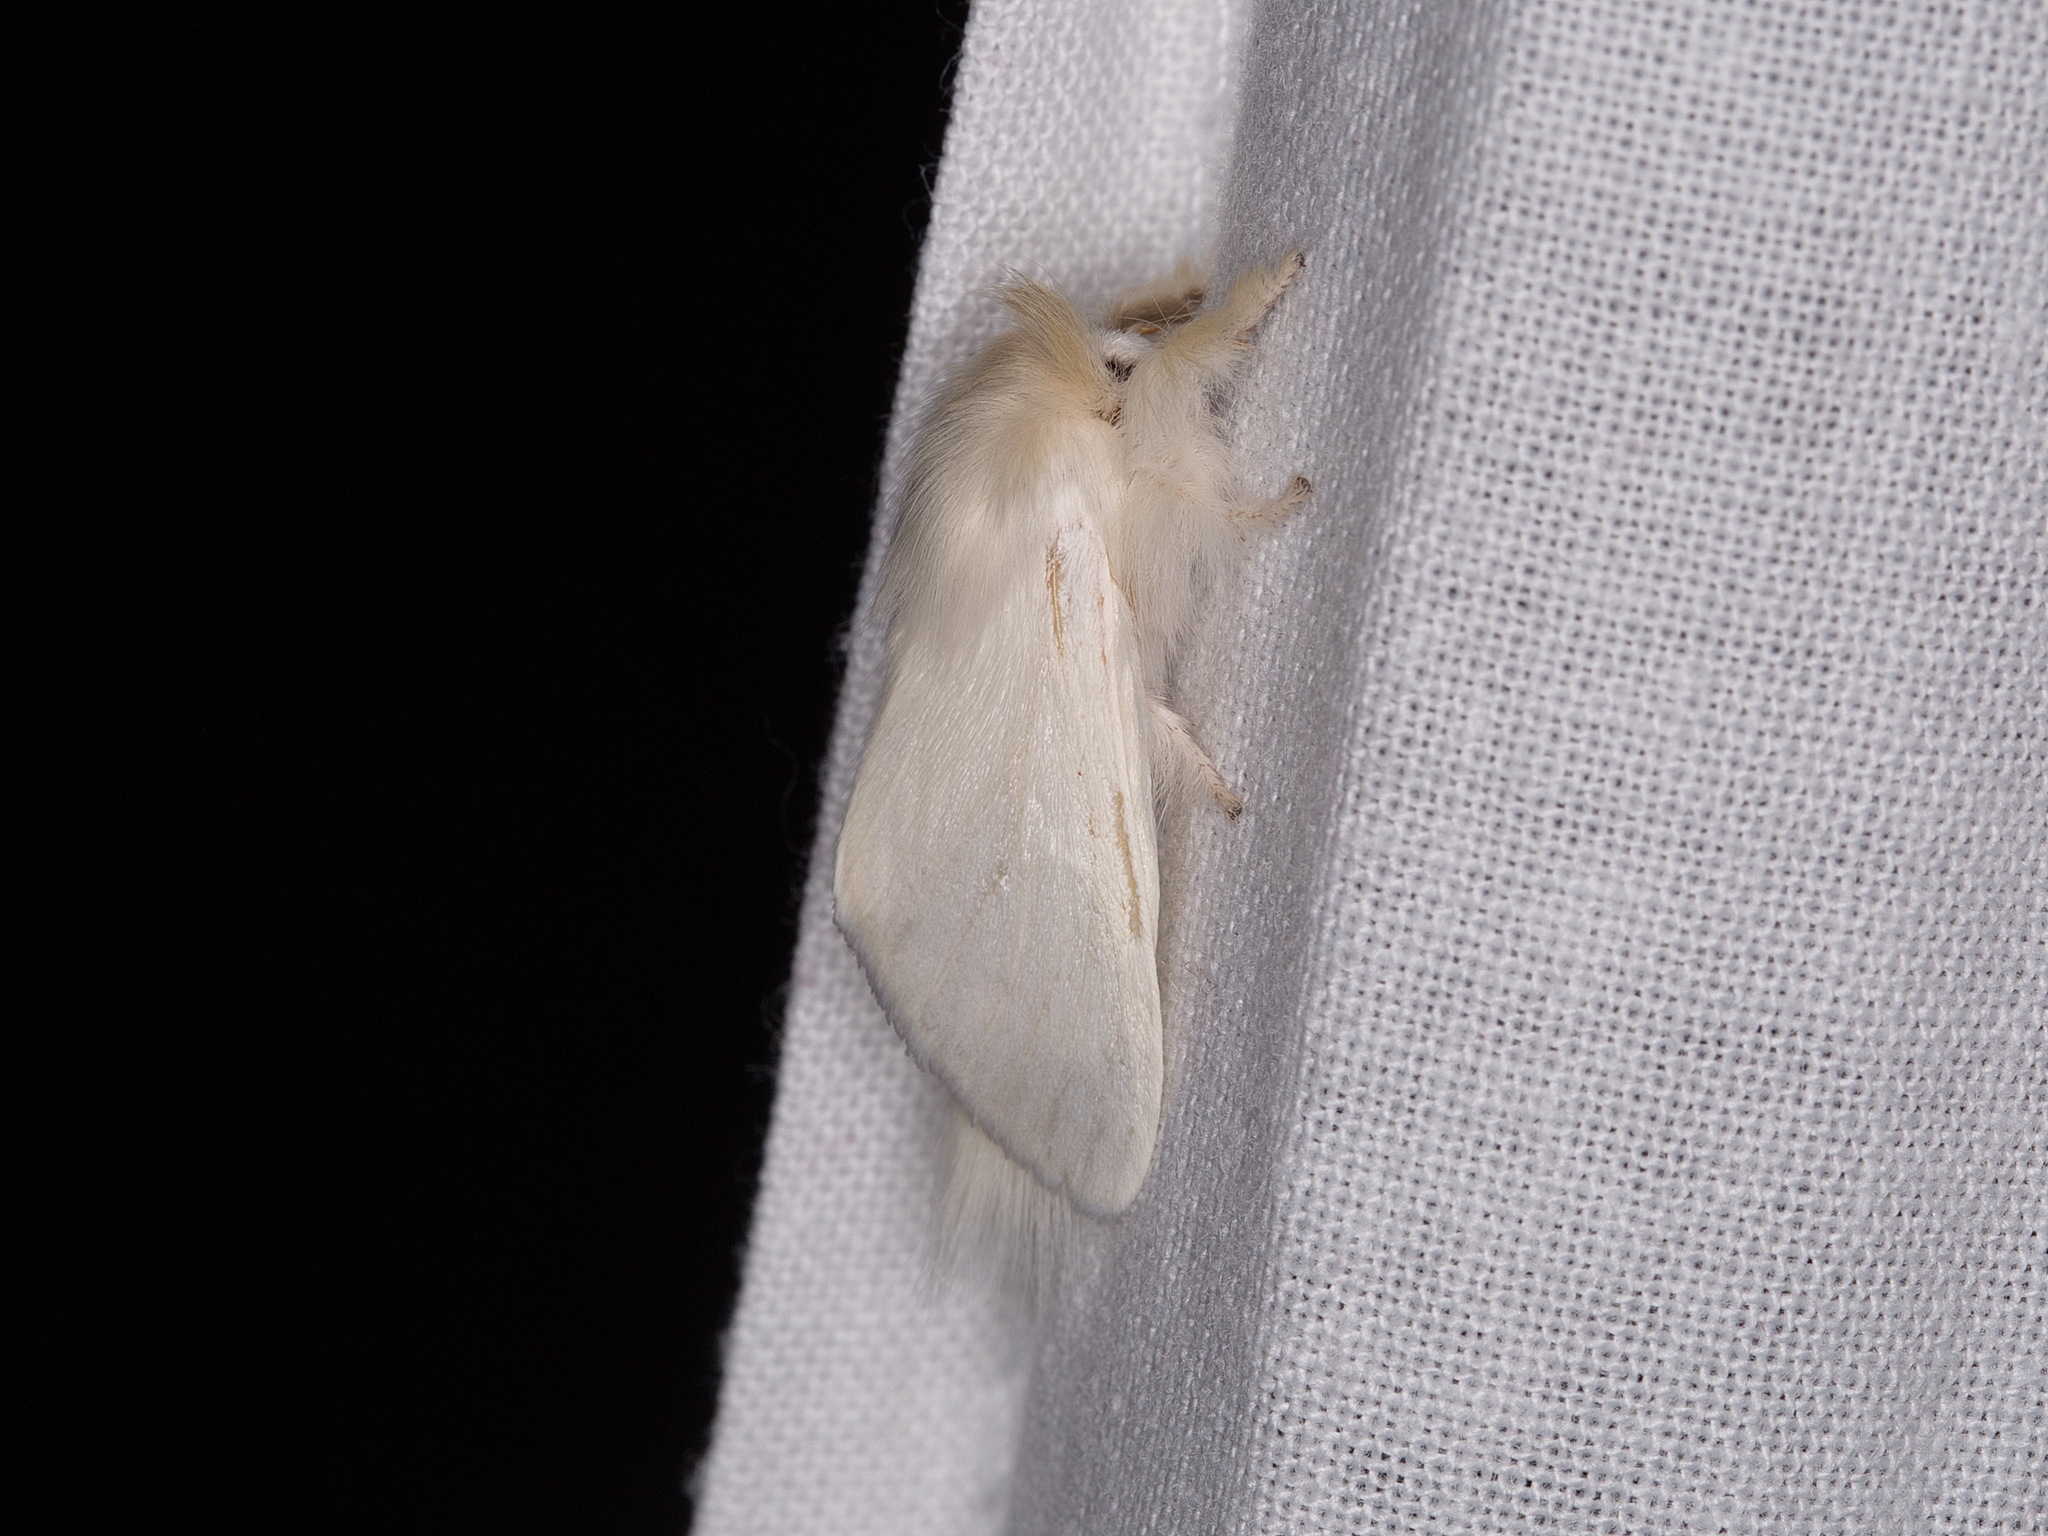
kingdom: Animalia
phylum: Arthropoda
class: Insecta
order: Lepidoptera
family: Notodontidae
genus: Trichiocercus
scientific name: Trichiocercus sparshalli
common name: Long-tailed satin
